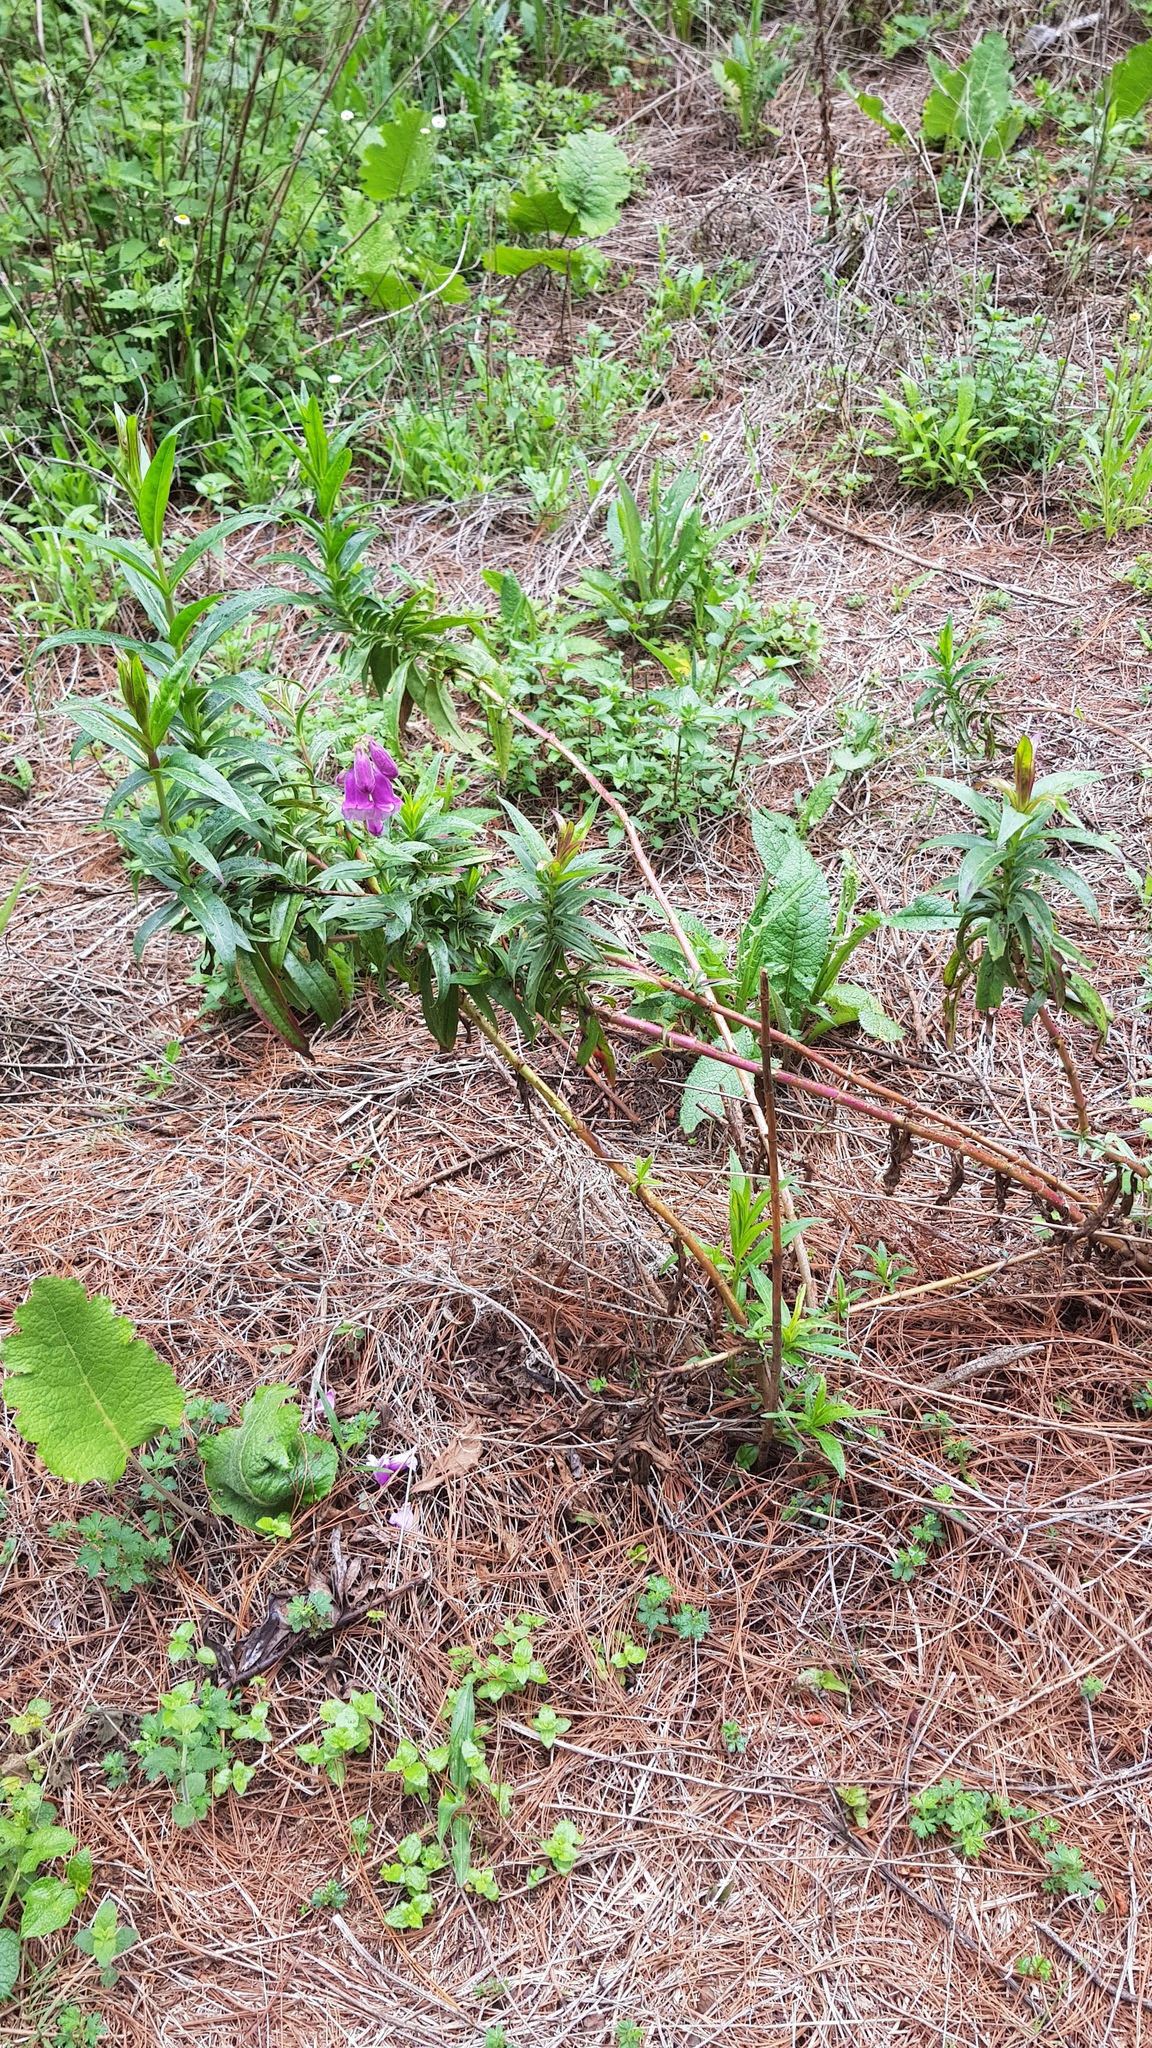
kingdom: Plantae
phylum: Tracheophyta
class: Magnoliopsida
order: Lamiales
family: Plantaginaceae
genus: Penstemon
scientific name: Penstemon gentianoides
